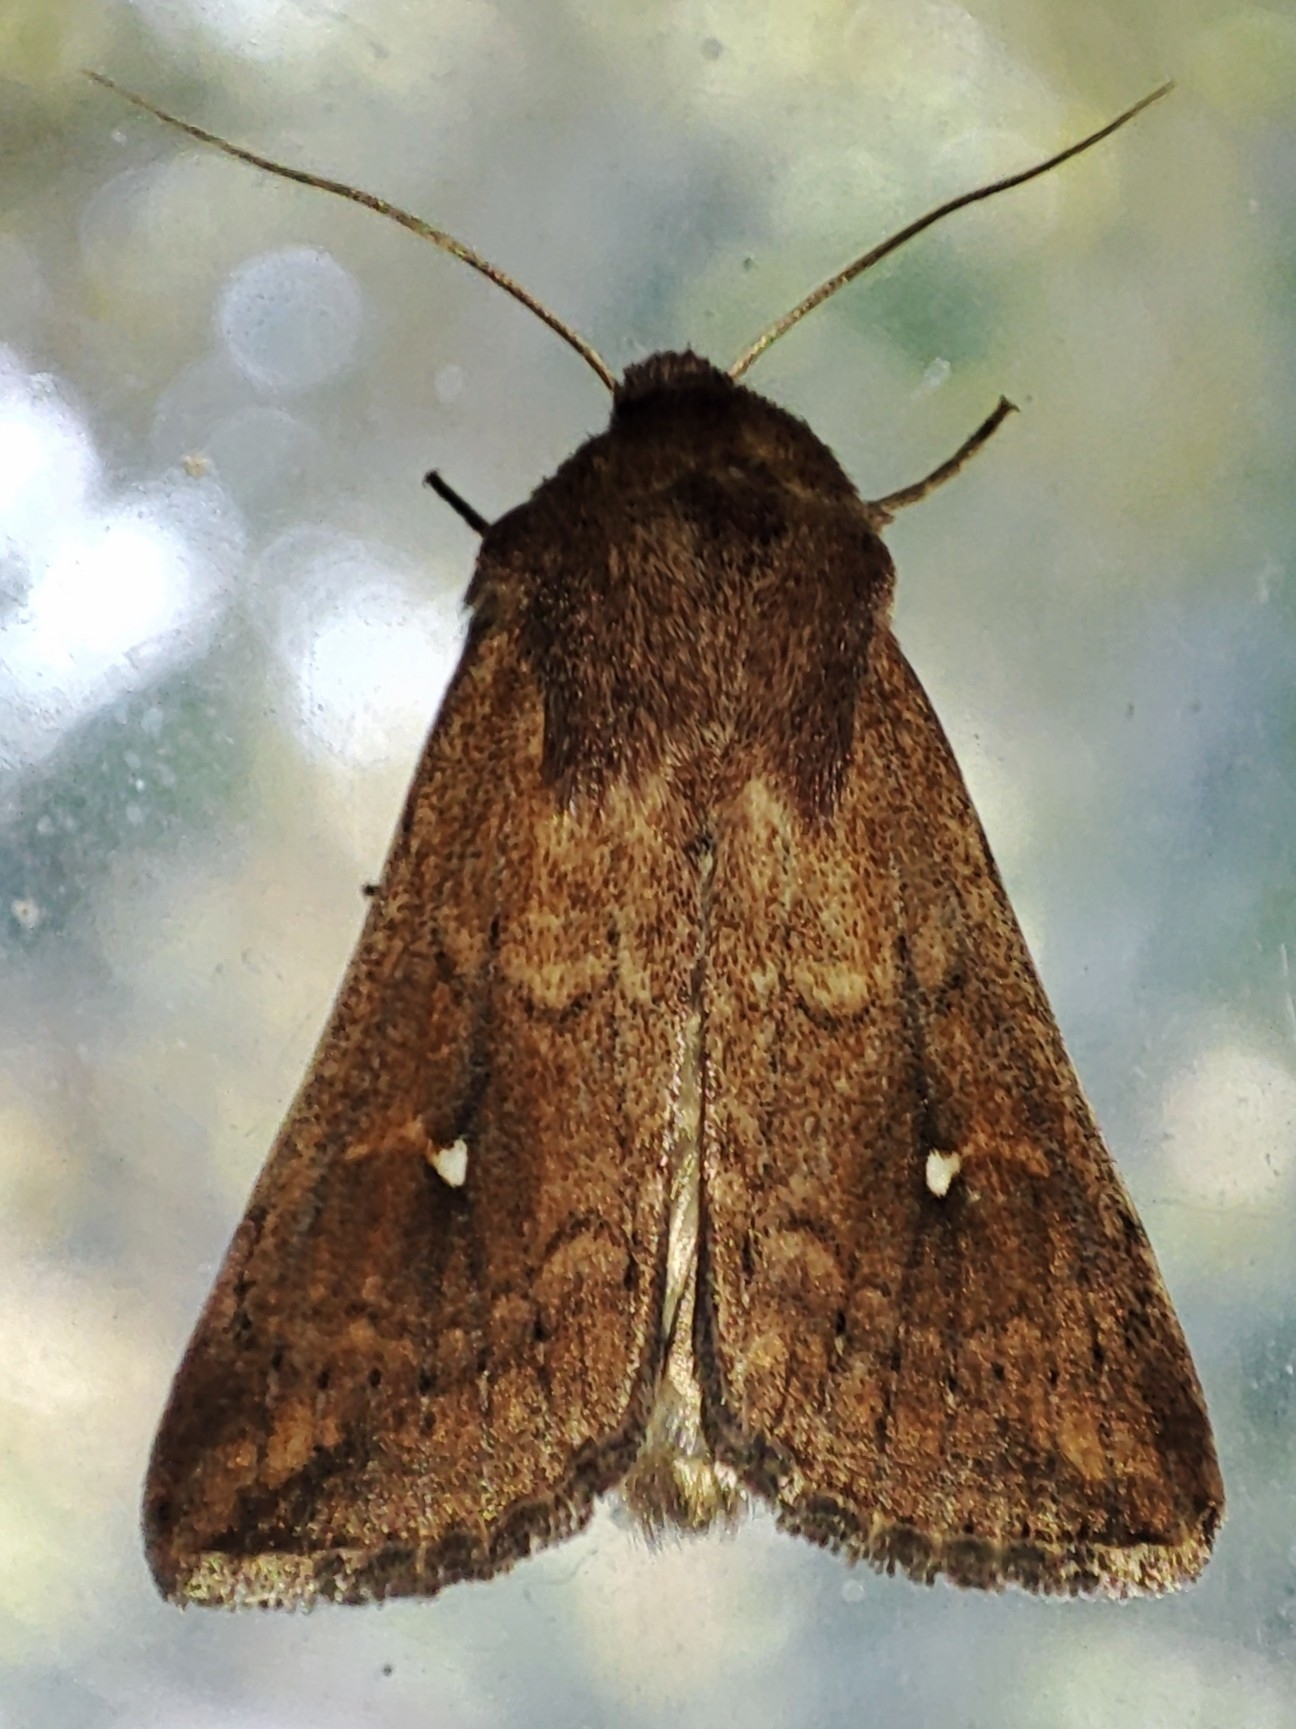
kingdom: Animalia
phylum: Arthropoda
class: Insecta
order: Lepidoptera
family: Noctuidae
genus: Mythimna
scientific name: Mythimna albipuncta
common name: White-point
